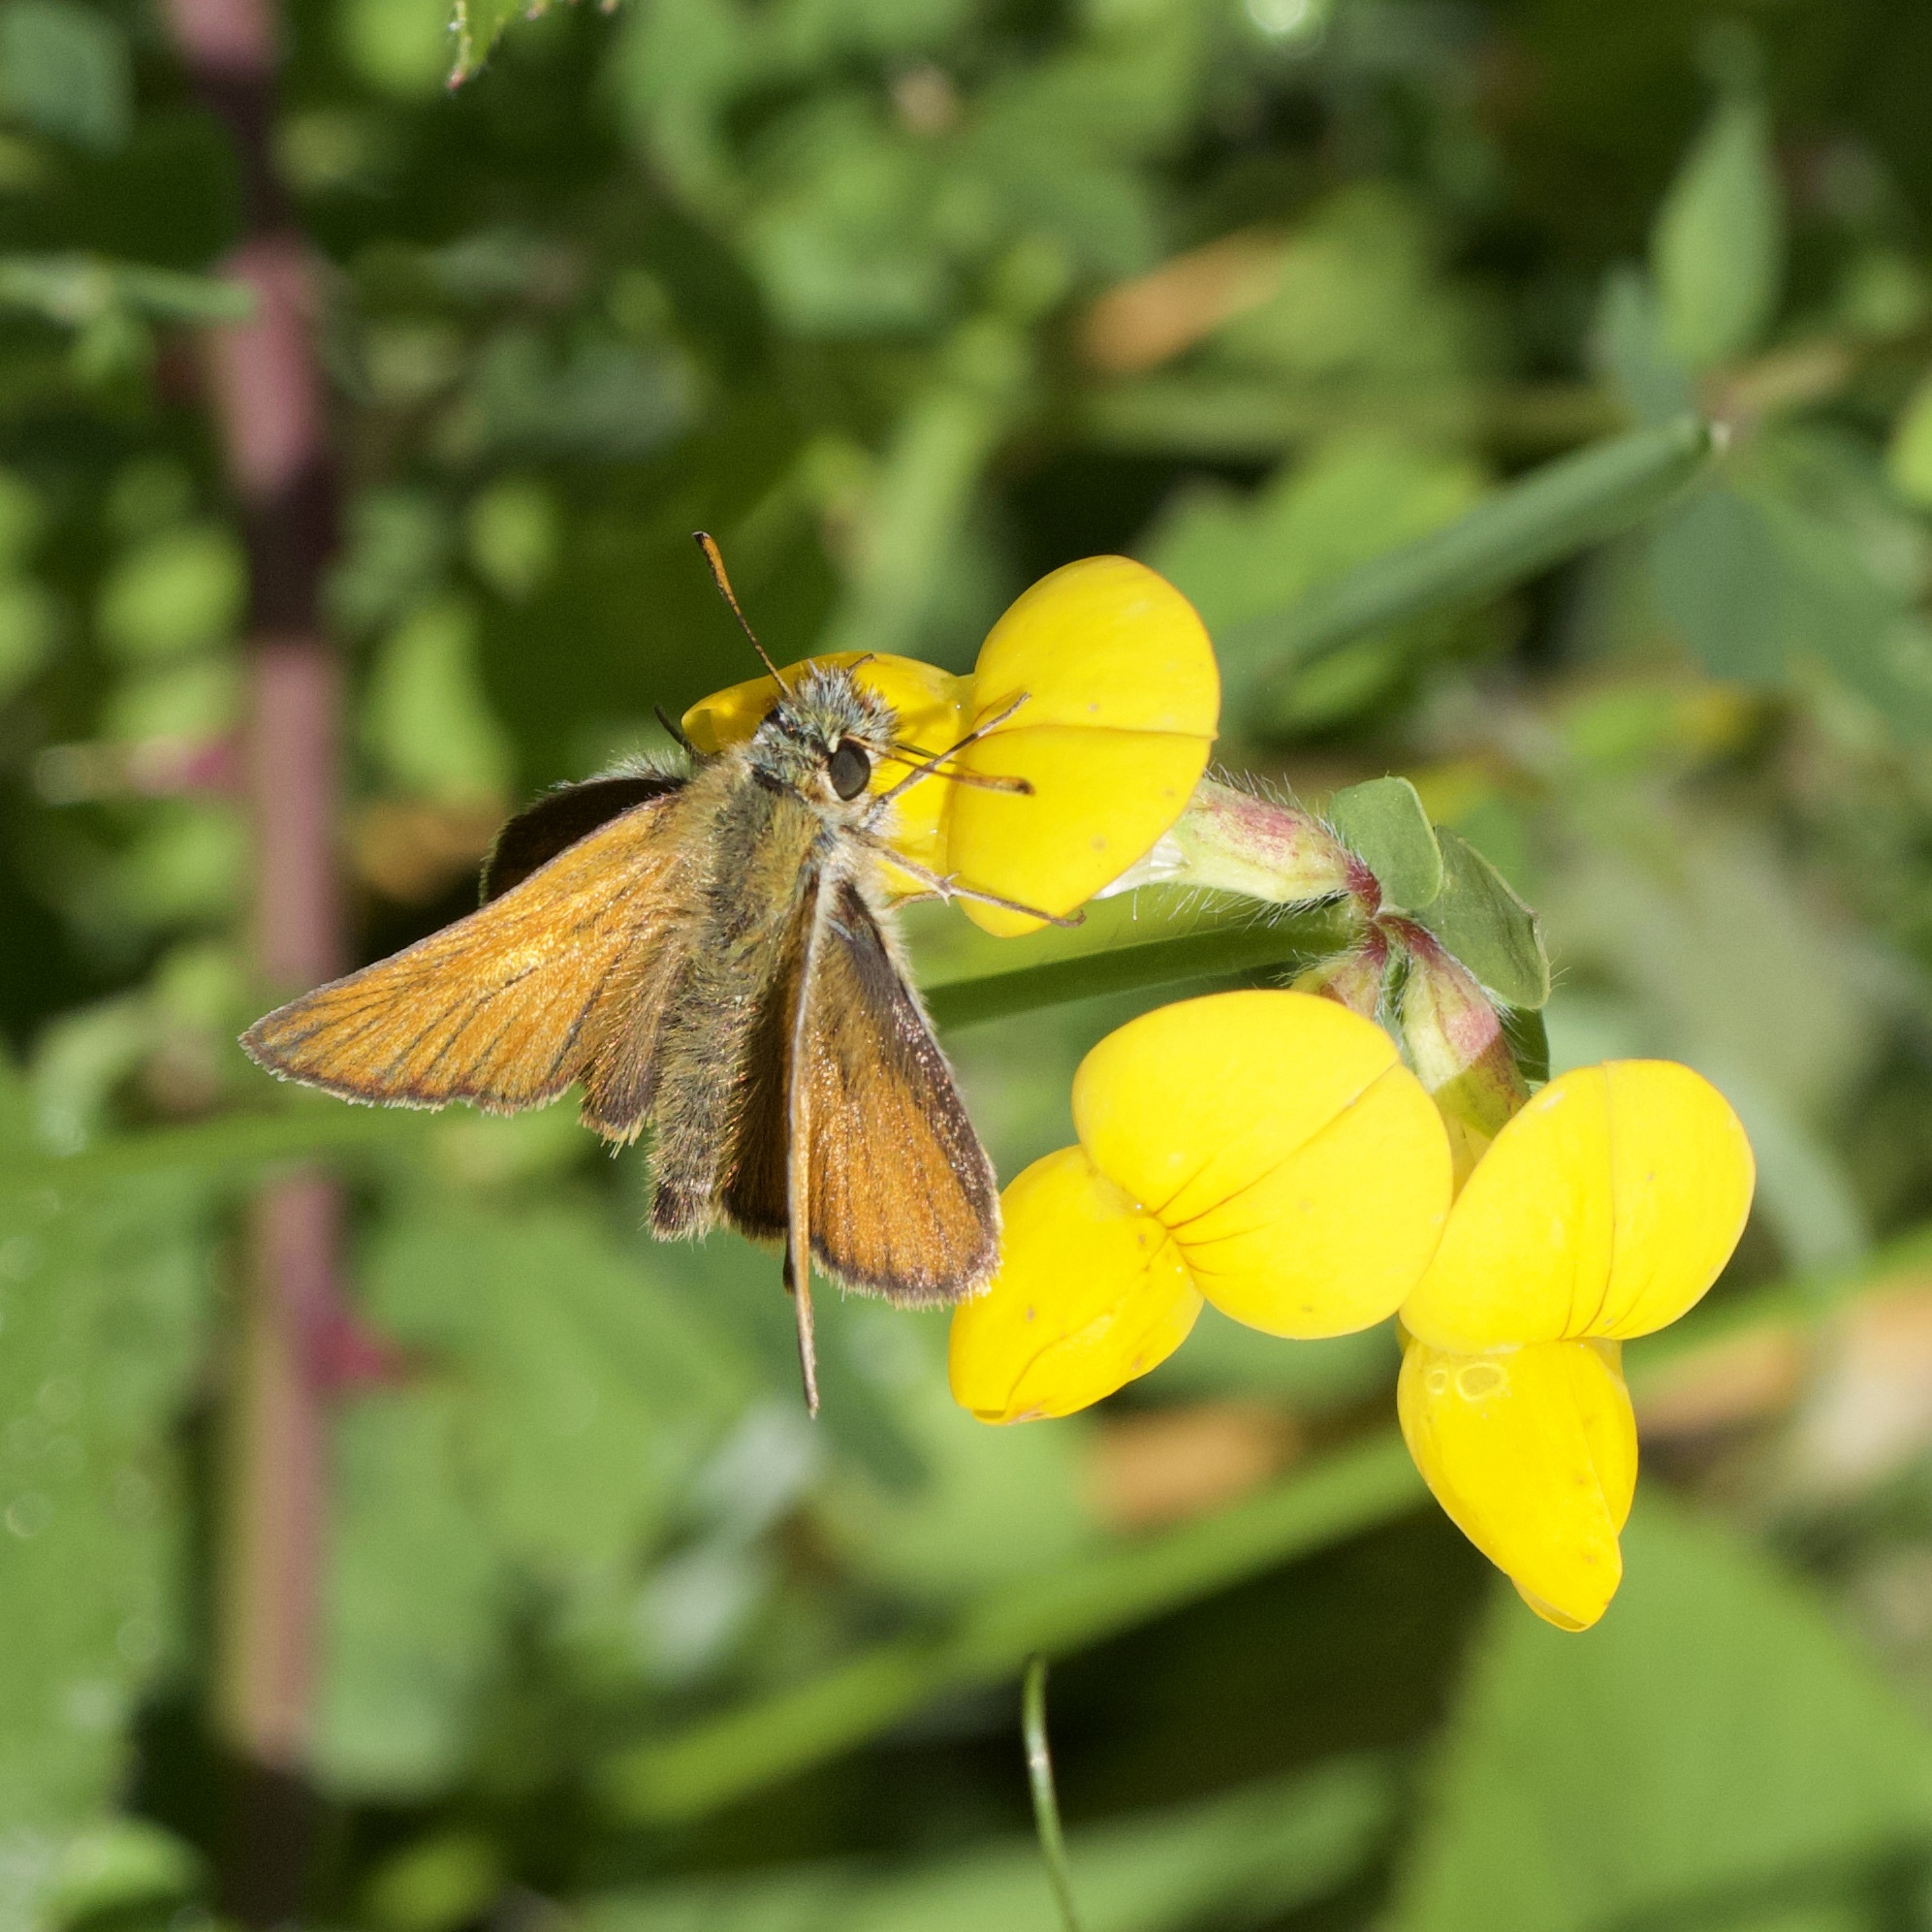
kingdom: Animalia
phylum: Arthropoda
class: Insecta
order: Lepidoptera
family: Hesperiidae
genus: Thymelicus
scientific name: Thymelicus sylvestris
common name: Small skipper
